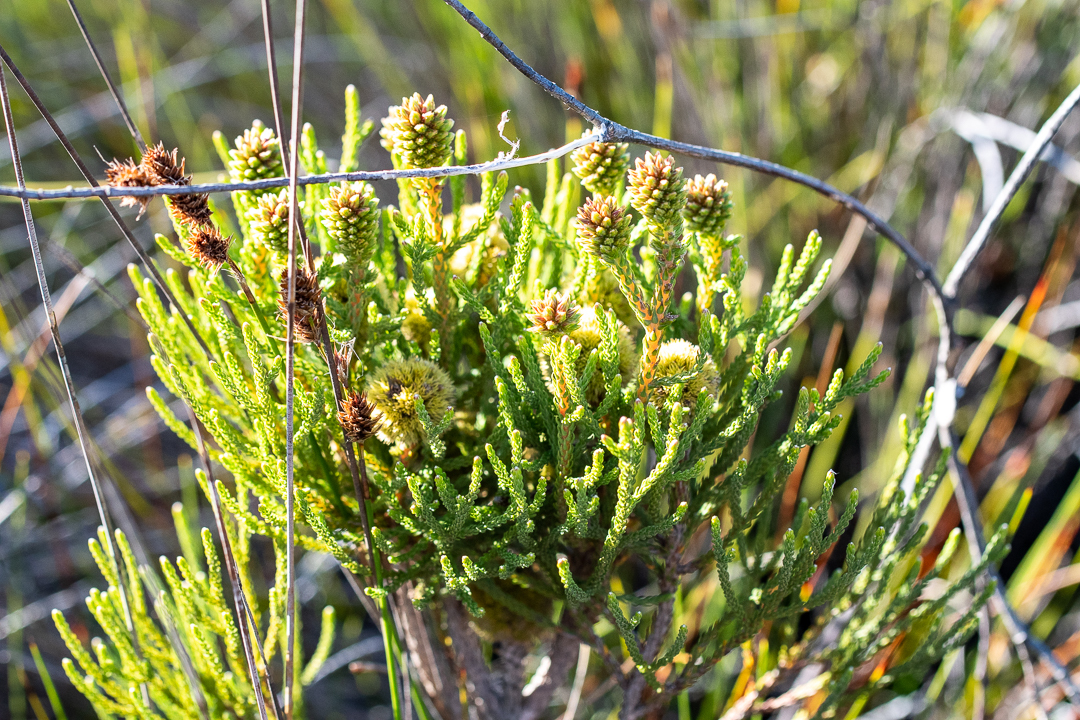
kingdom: Plantae
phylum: Tracheophyta
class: Magnoliopsida
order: Bruniales
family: Bruniaceae
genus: Brunia
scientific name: Brunia fragarioides
